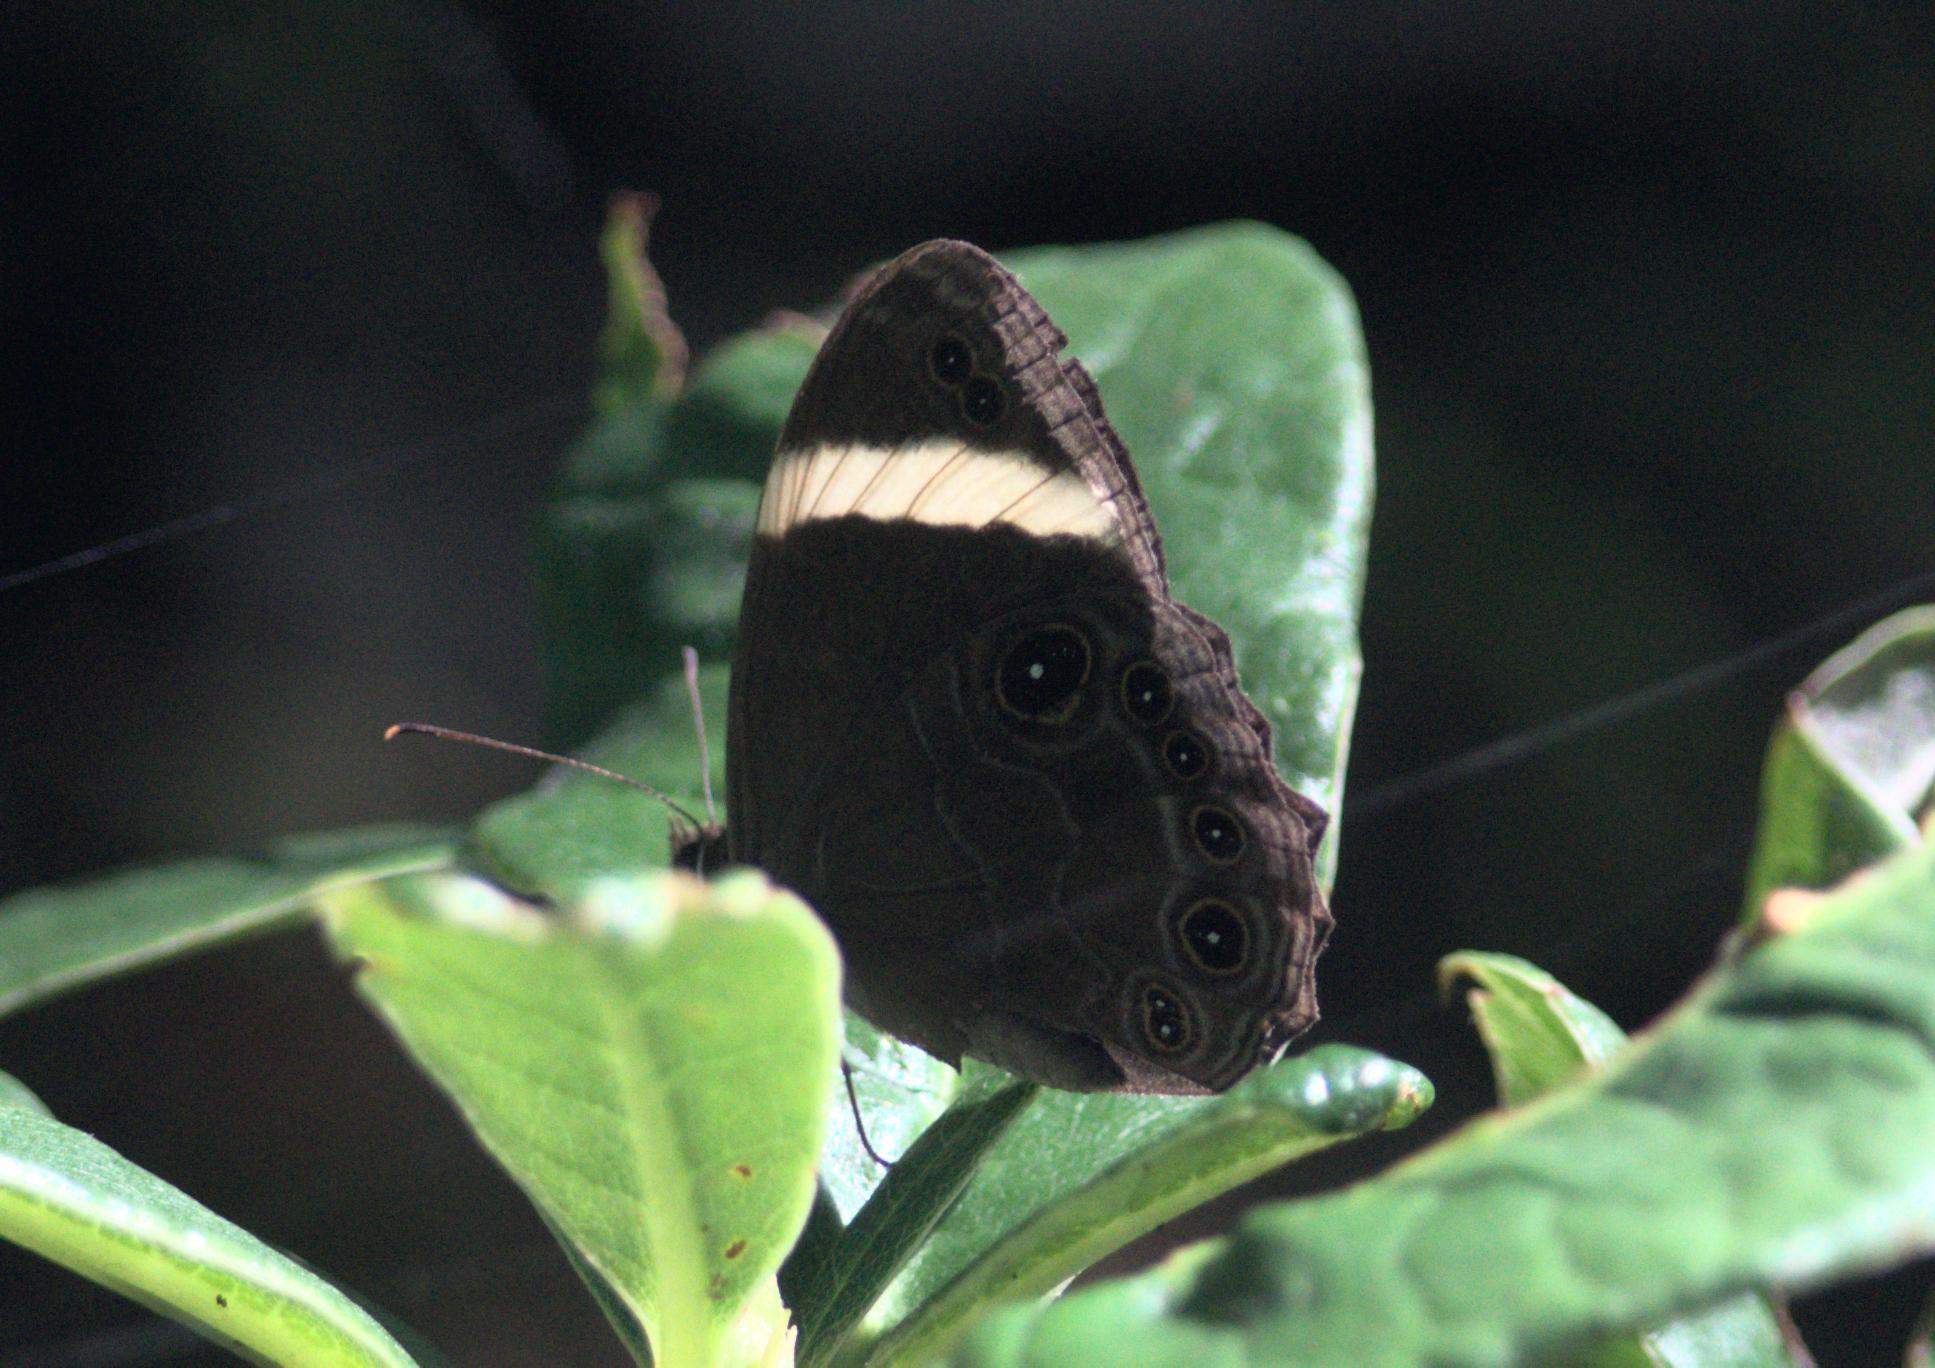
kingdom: Animalia
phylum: Arthropoda
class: Insecta
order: Lepidoptera
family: Nymphalidae
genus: Lethe
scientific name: Lethe verma
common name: Straight-banded treebrown
